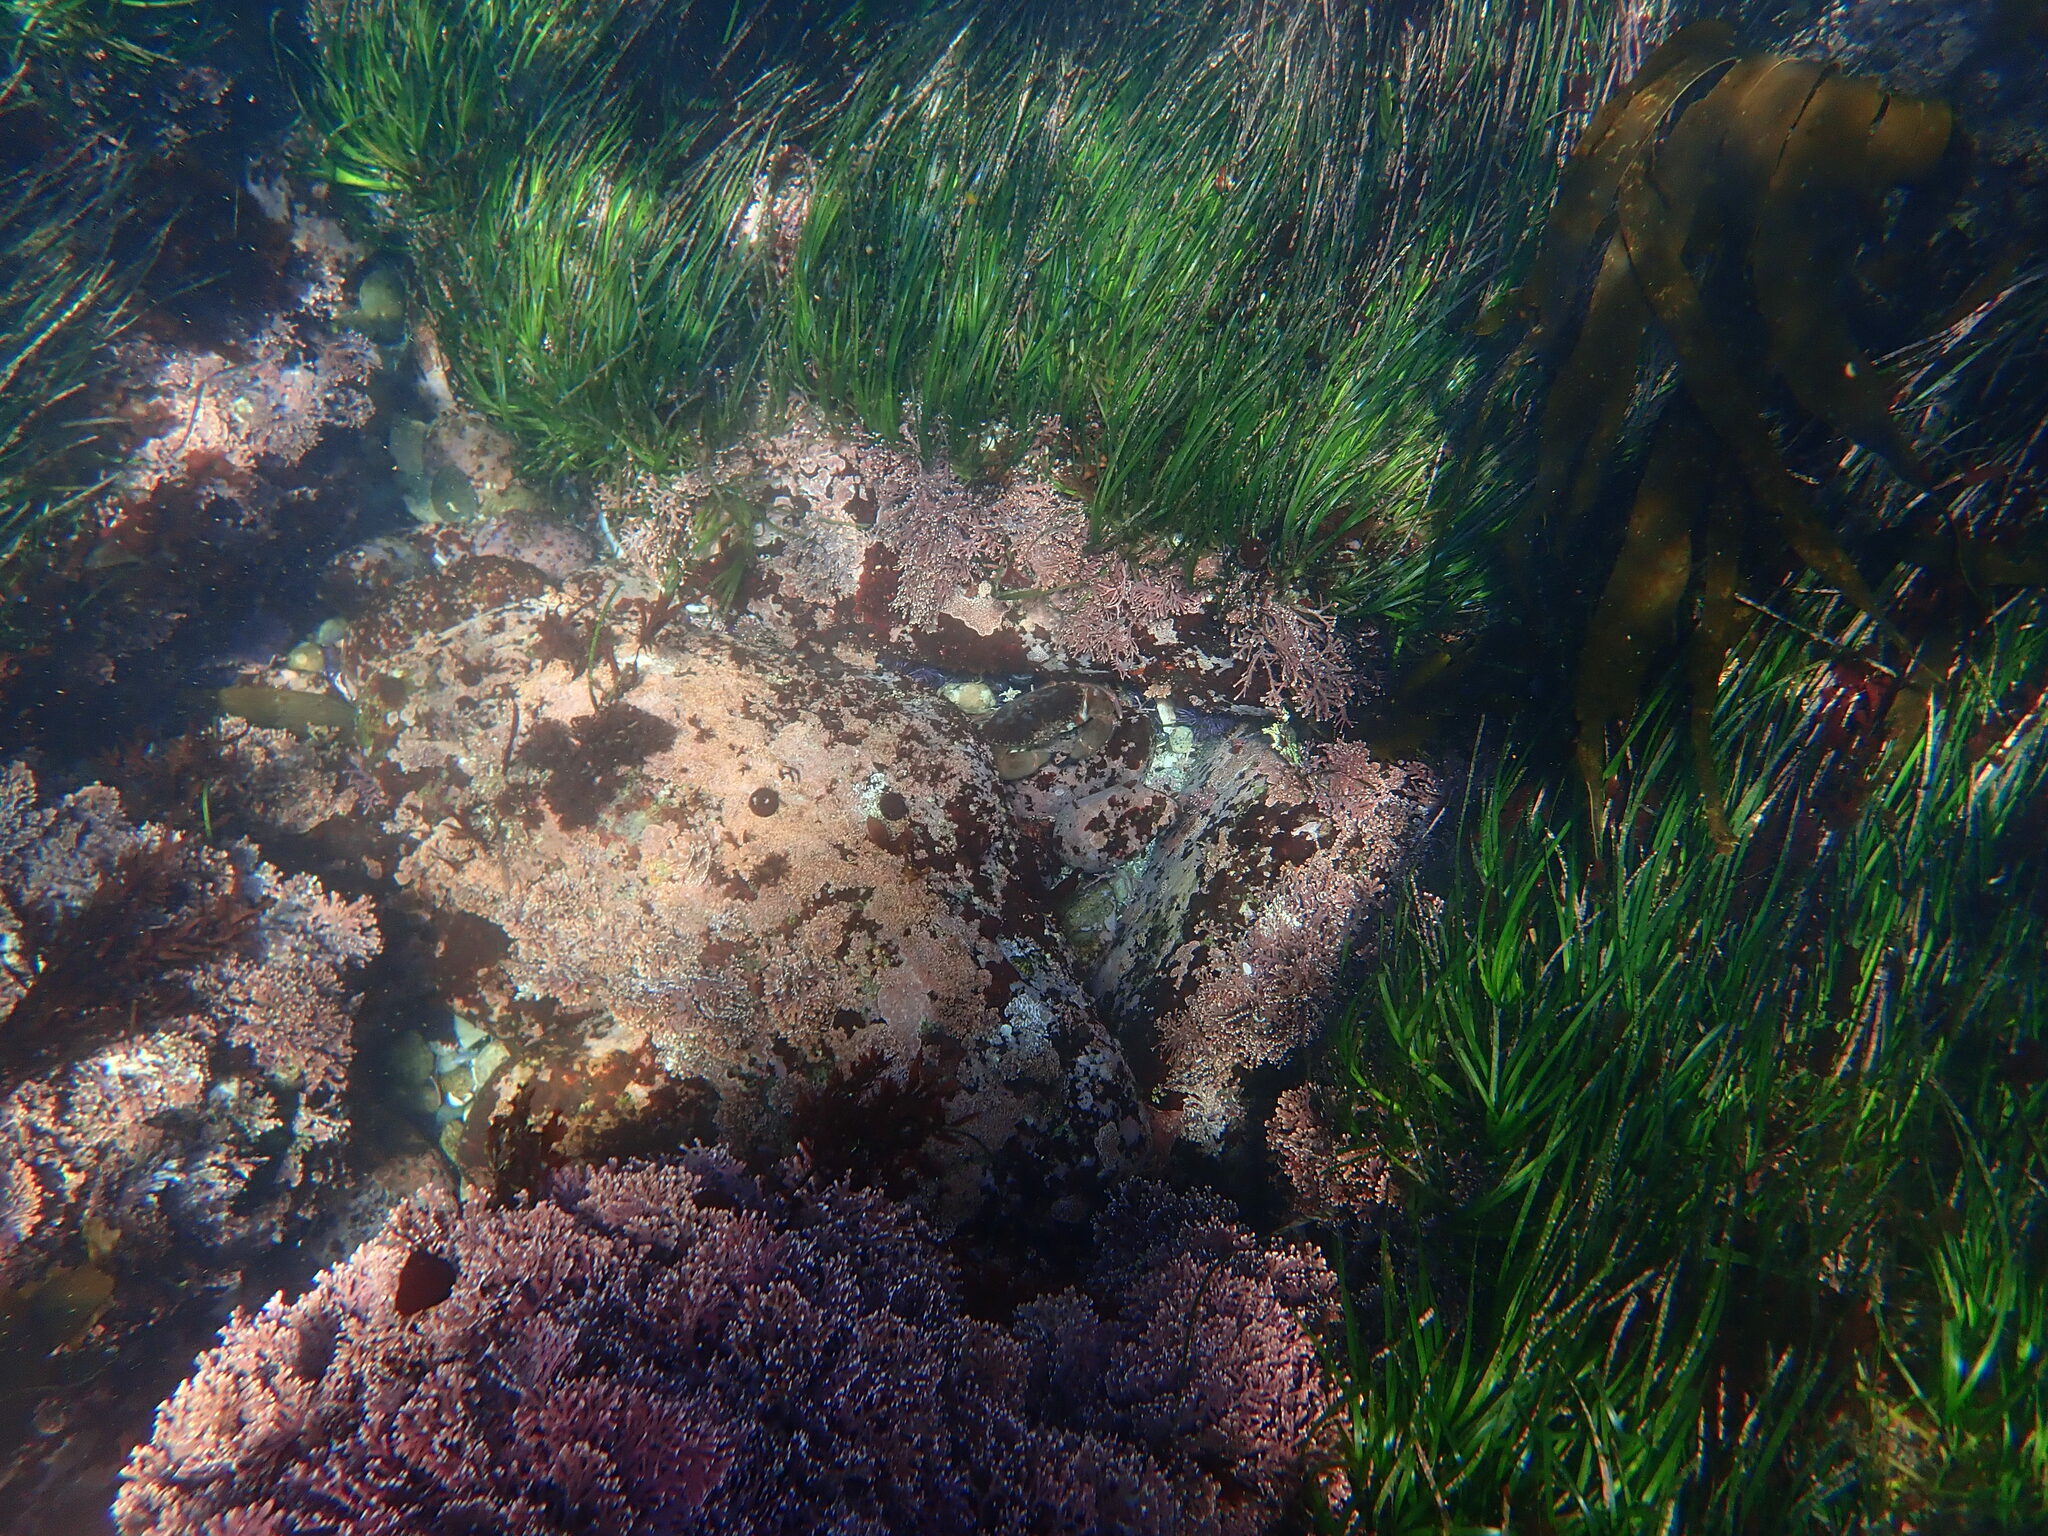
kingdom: Animalia
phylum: Arthropoda
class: Malacostraca
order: Decapoda
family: Cancridae
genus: Romaleon
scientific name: Romaleon antennarium
